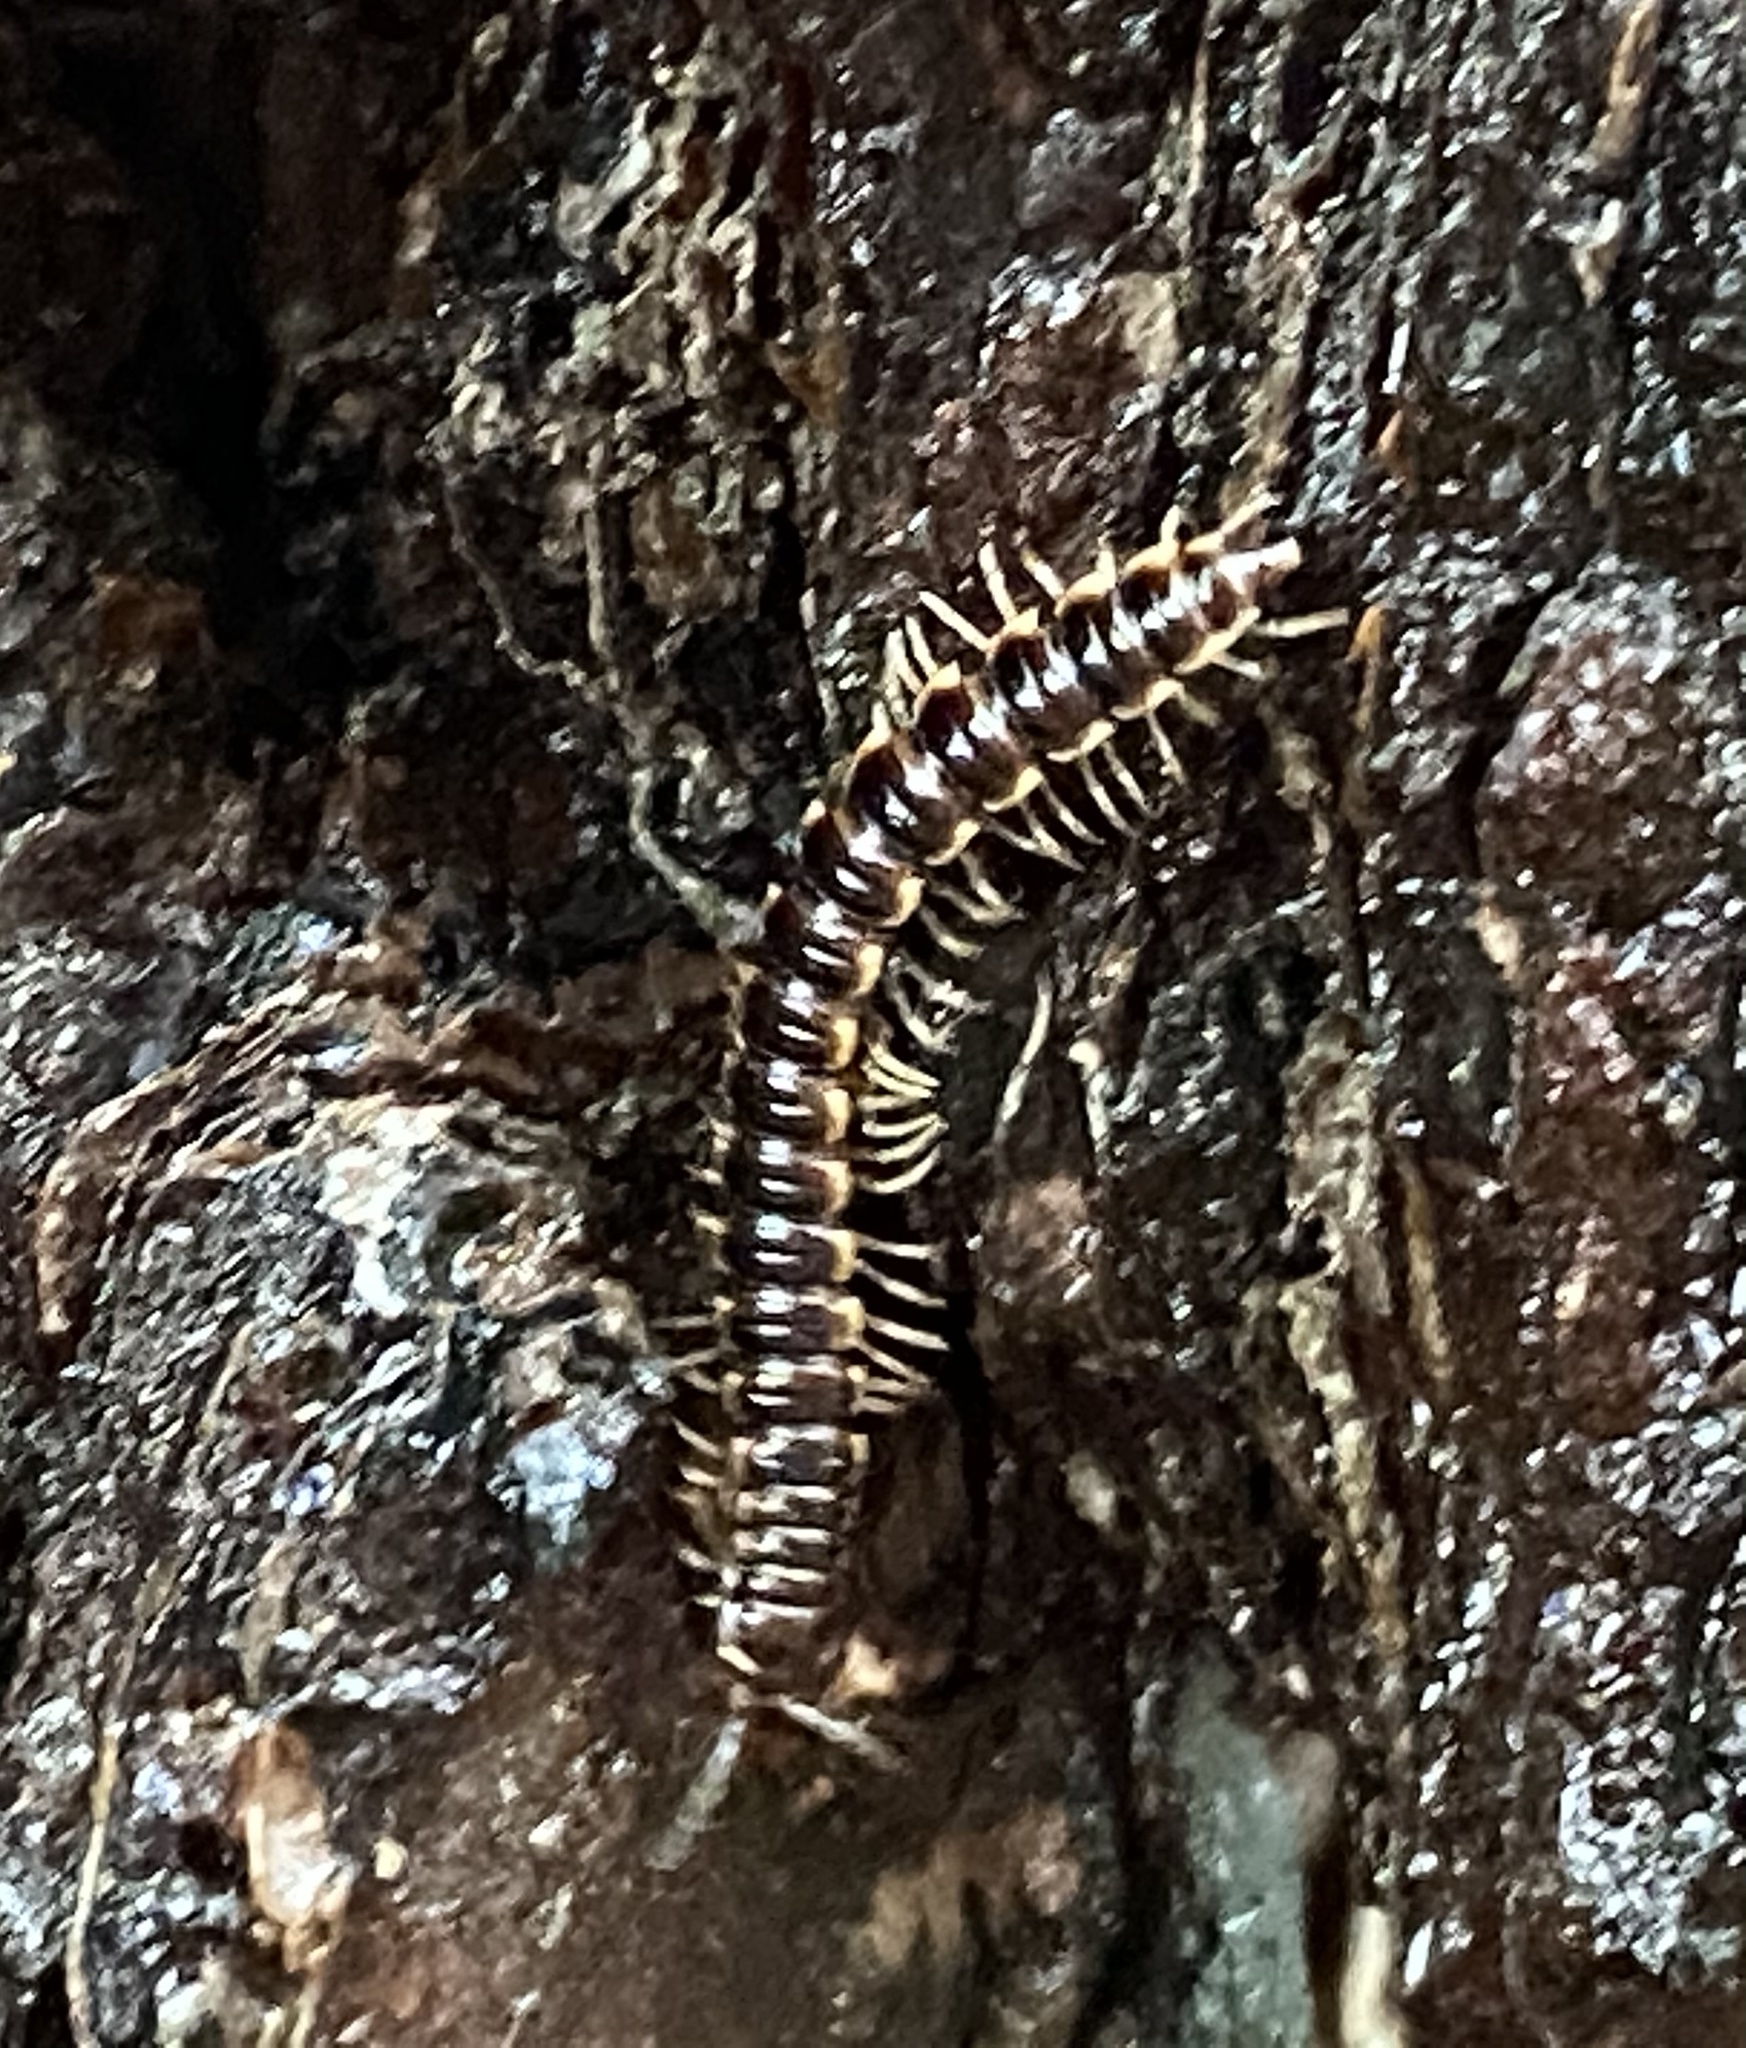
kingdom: Animalia
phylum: Arthropoda
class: Diplopoda
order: Polydesmida
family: Paradoxosomatidae
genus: Oxidus
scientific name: Oxidus gracilis
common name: Greenhouse millipede
